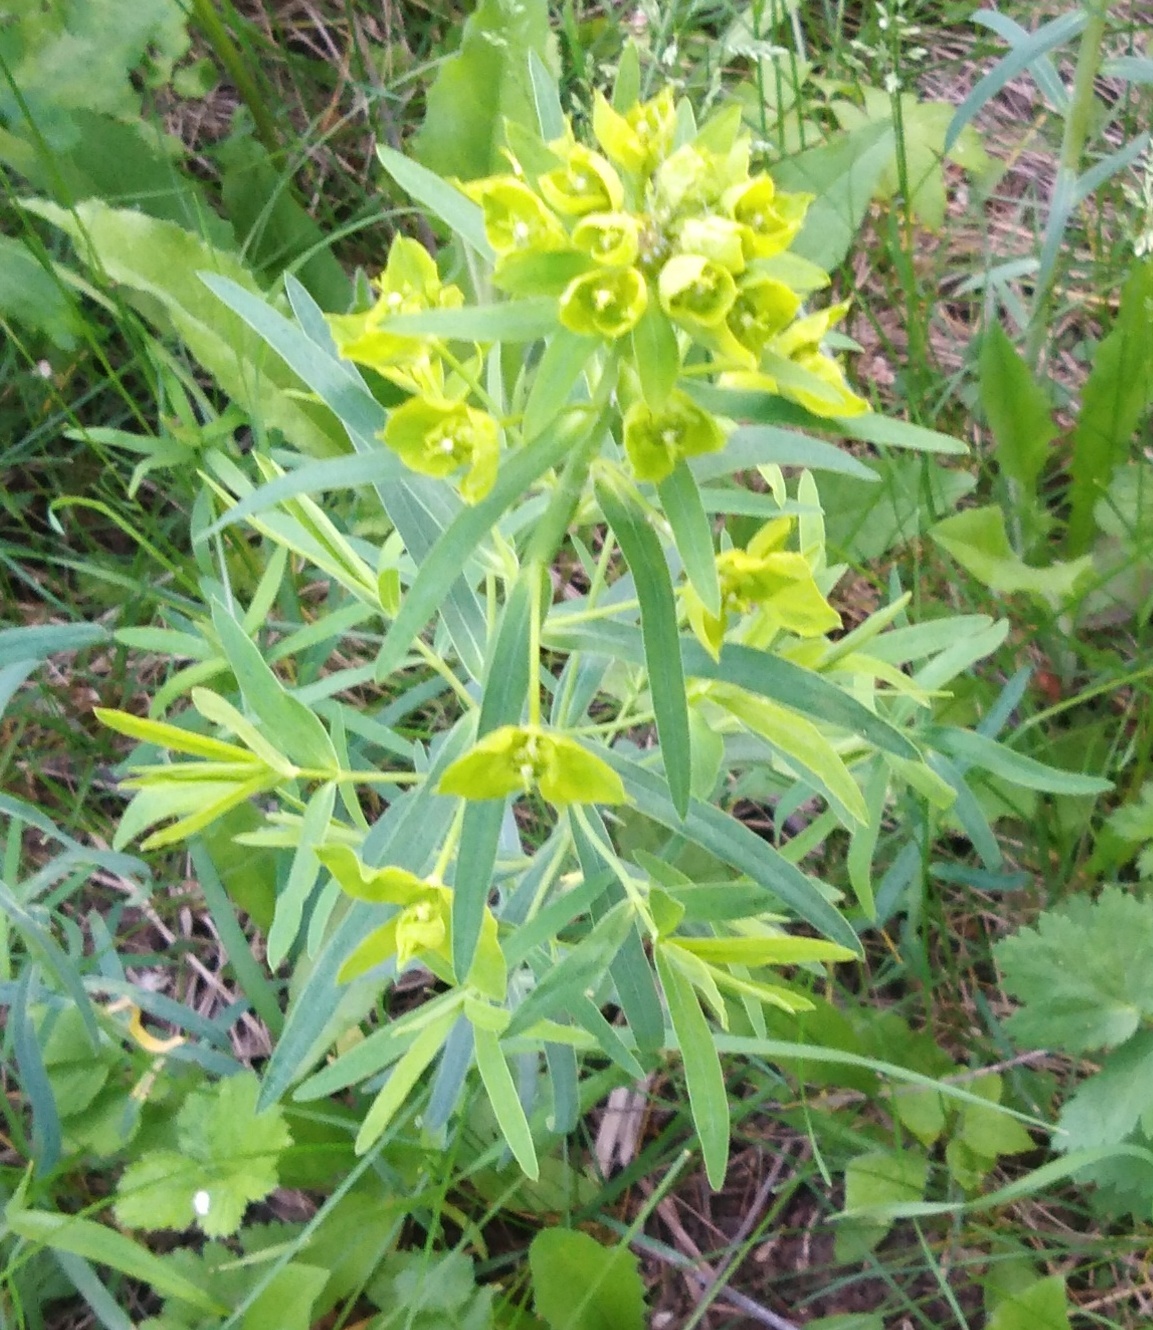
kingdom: Plantae
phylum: Tracheophyta
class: Magnoliopsida
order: Malpighiales
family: Euphorbiaceae
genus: Euphorbia
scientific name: Euphorbia virgata
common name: Leafy spurge
